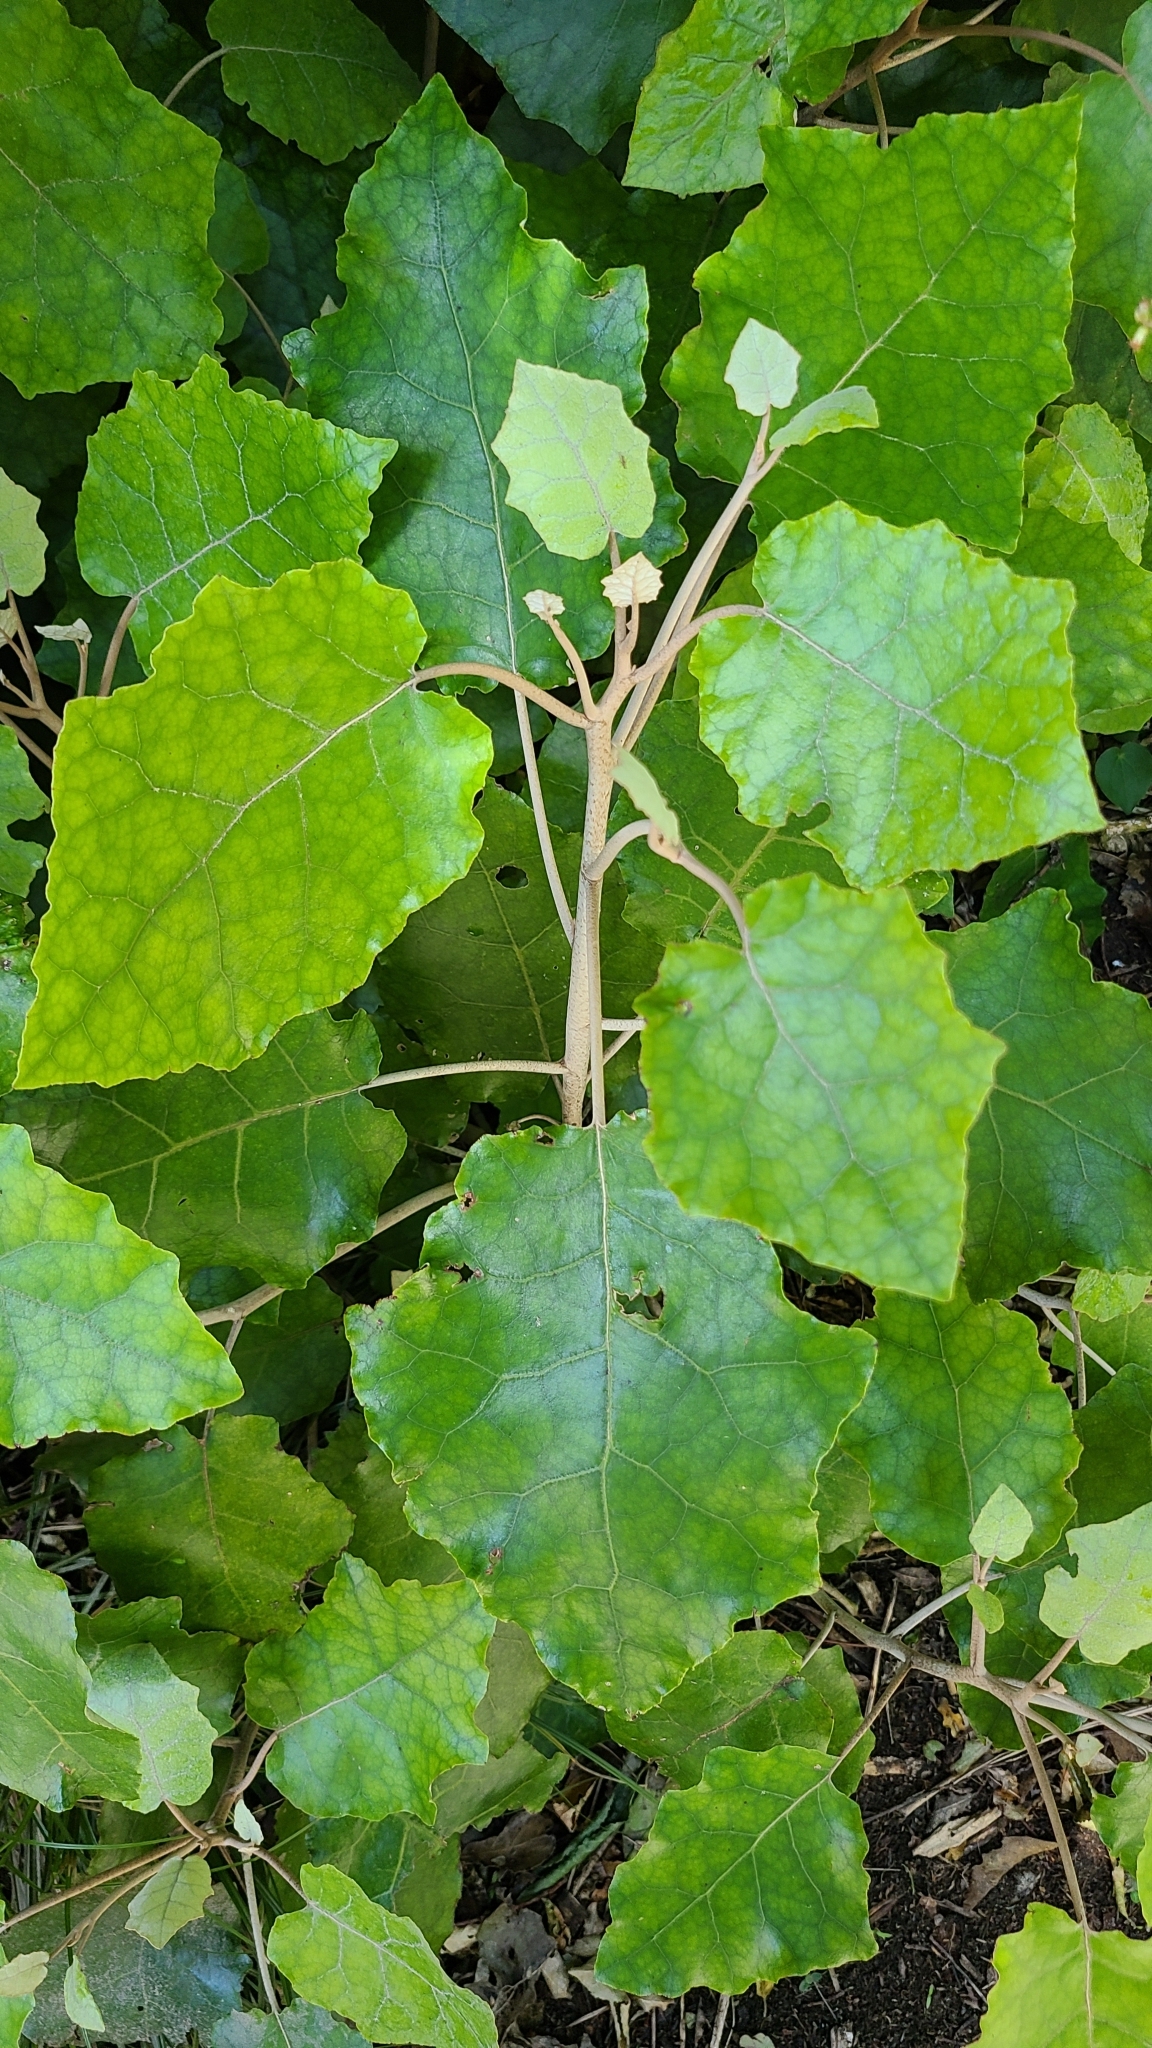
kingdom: Plantae
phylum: Tracheophyta
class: Magnoliopsida
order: Asterales
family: Asteraceae
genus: Brachyglottis
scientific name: Brachyglottis repanda
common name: Hedge ragwort
